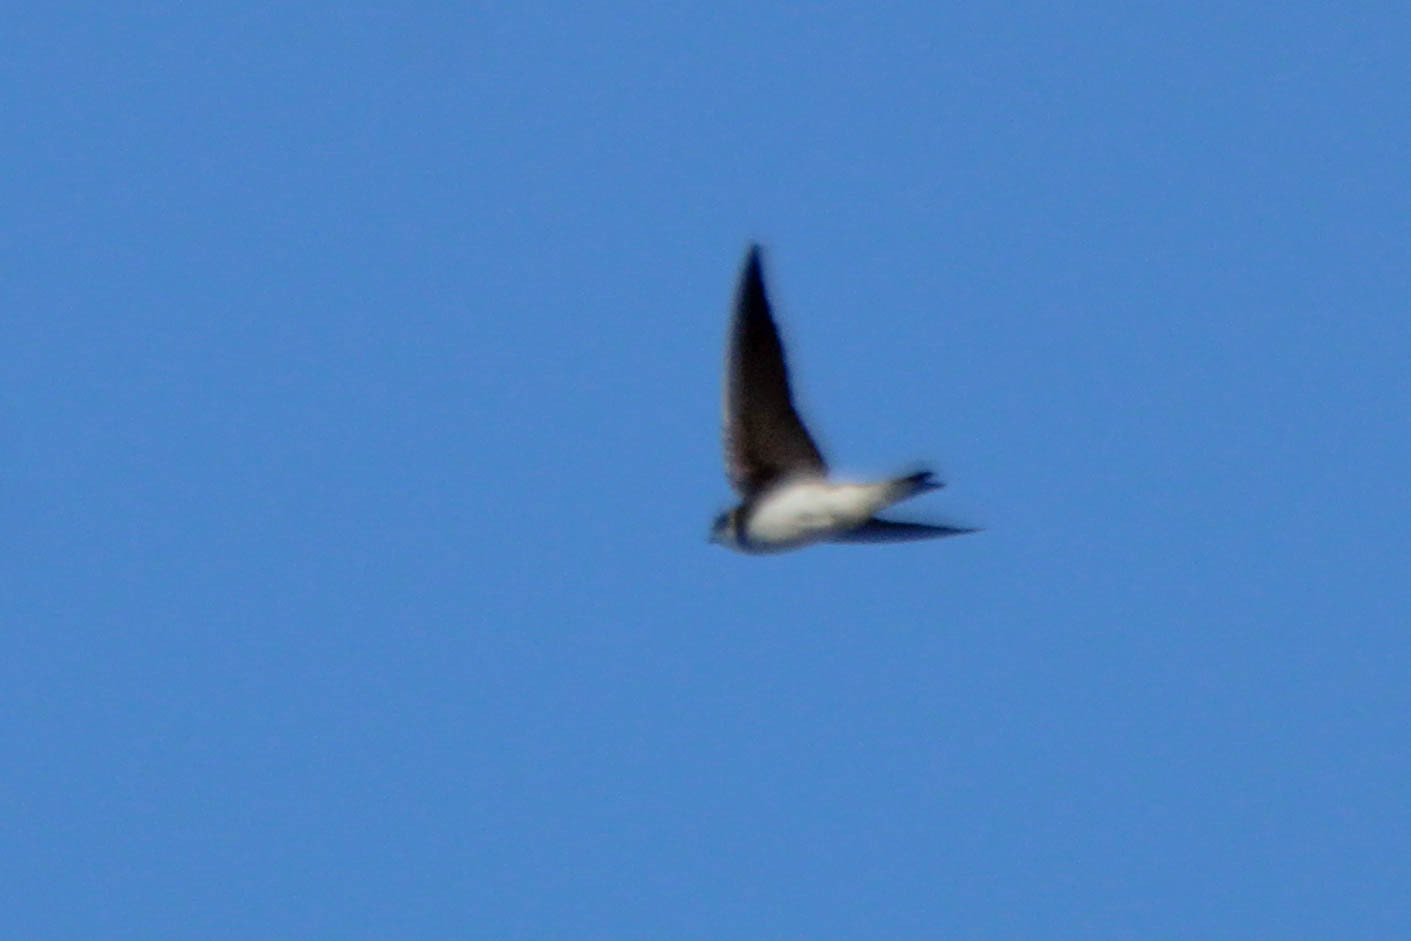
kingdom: Animalia
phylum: Chordata
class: Aves
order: Passeriformes
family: Hirundinidae
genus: Riparia
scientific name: Riparia riparia
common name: Sand martin
